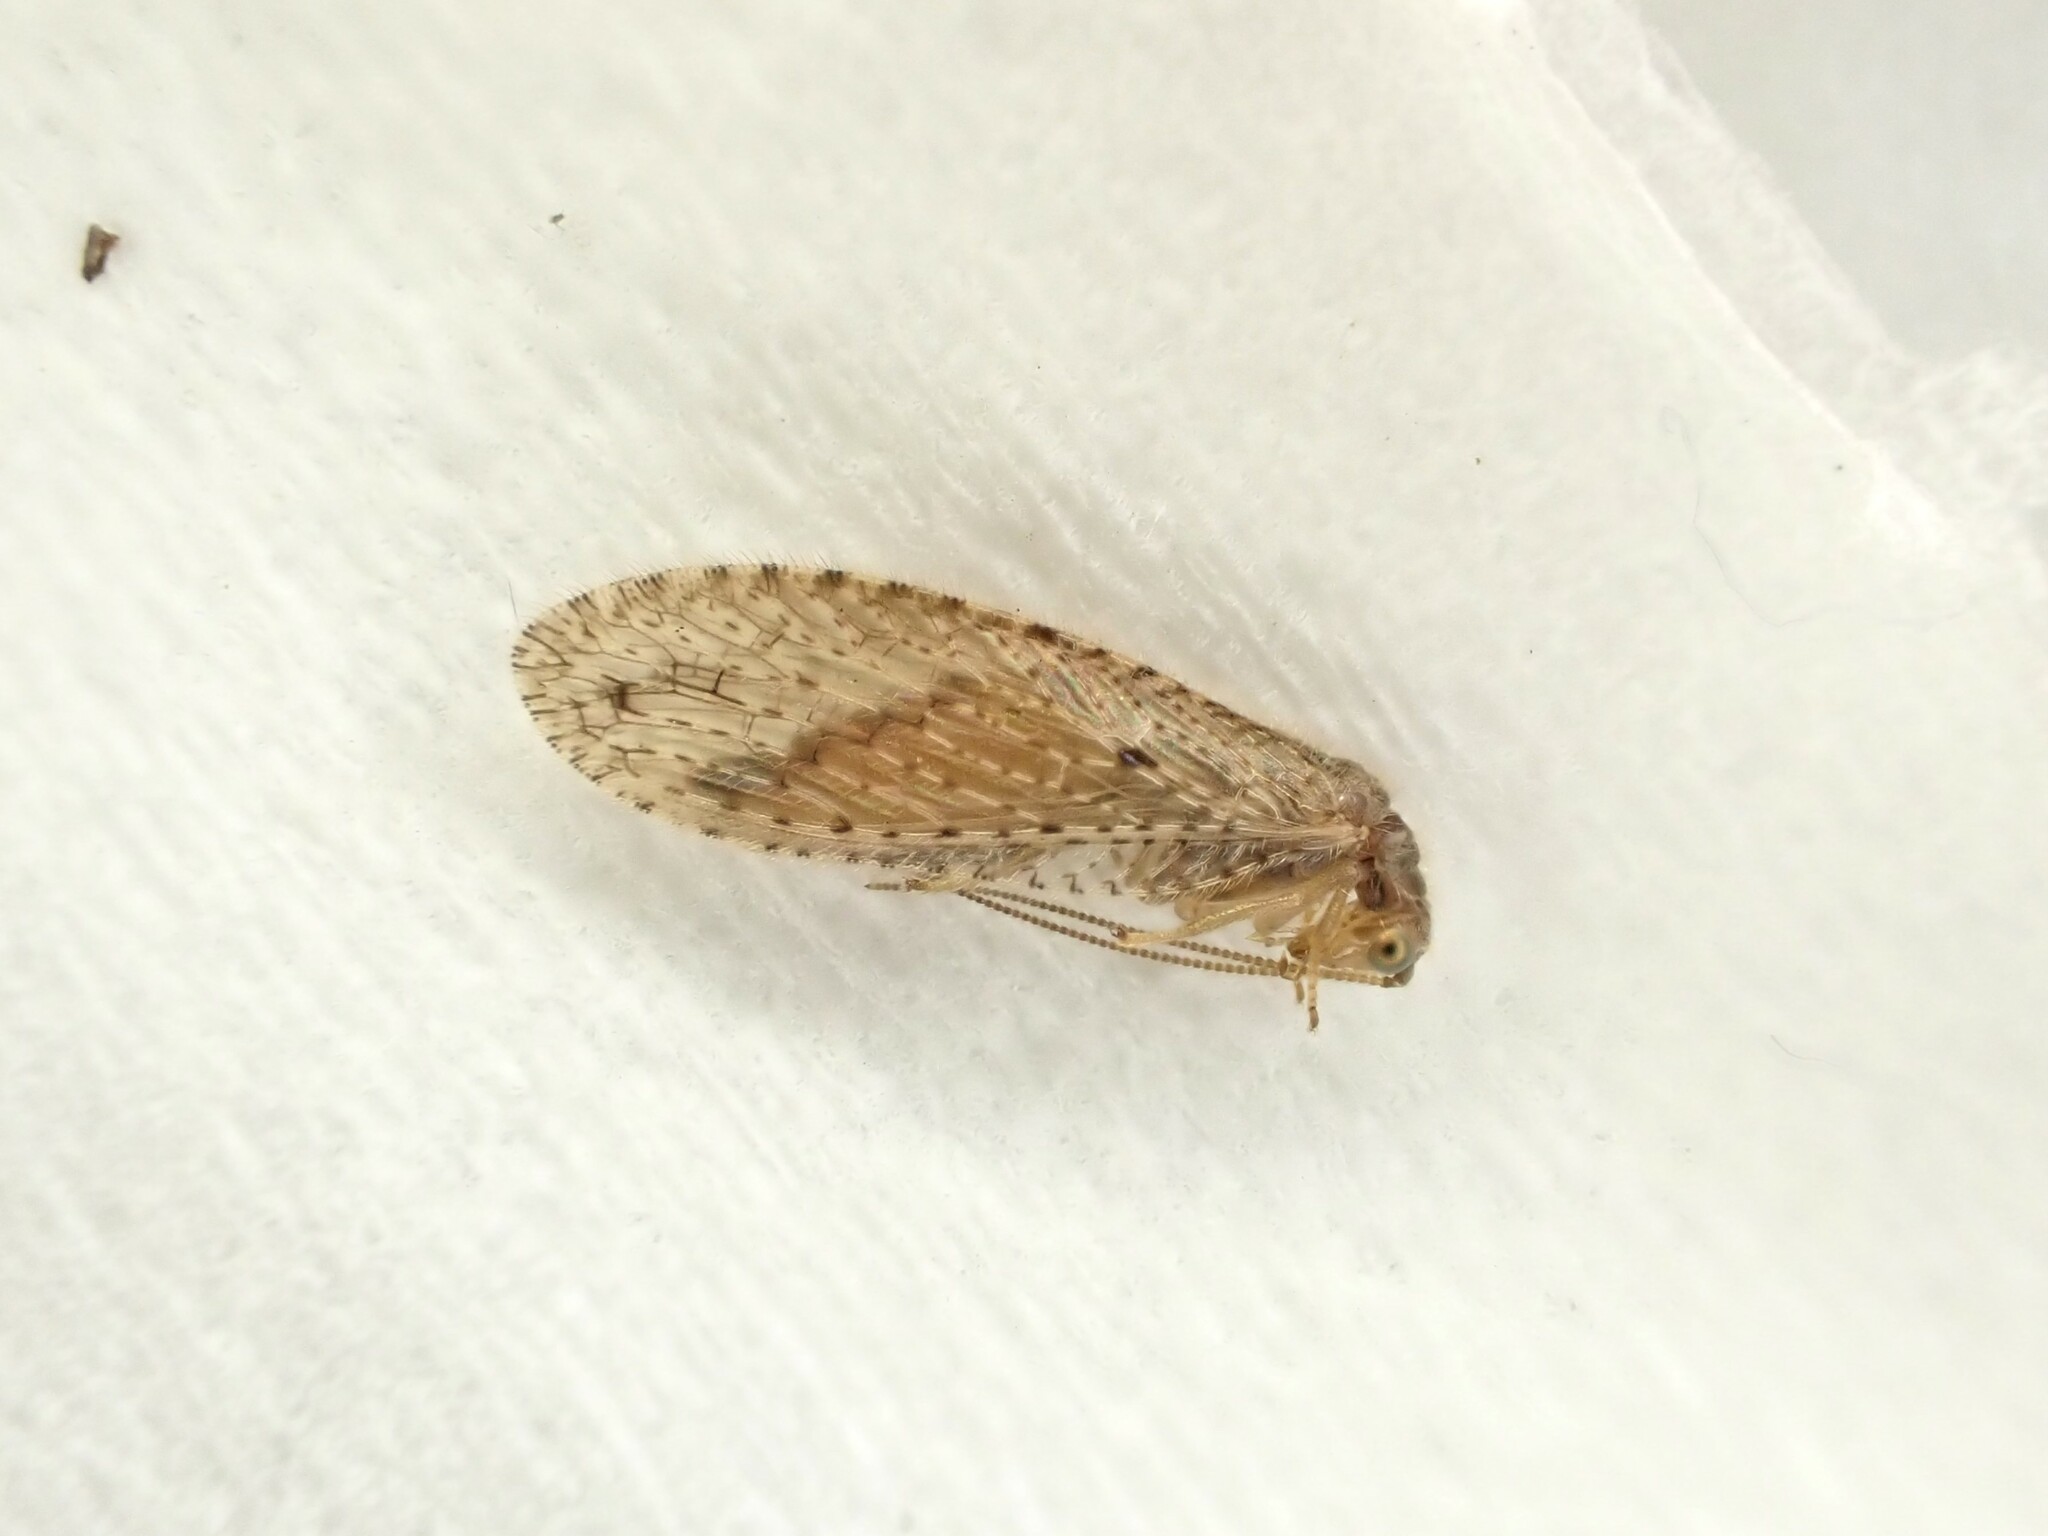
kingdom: Animalia
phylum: Arthropoda
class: Insecta
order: Neuroptera
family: Hemerobiidae
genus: Micromus
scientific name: Micromus tasmaniae
